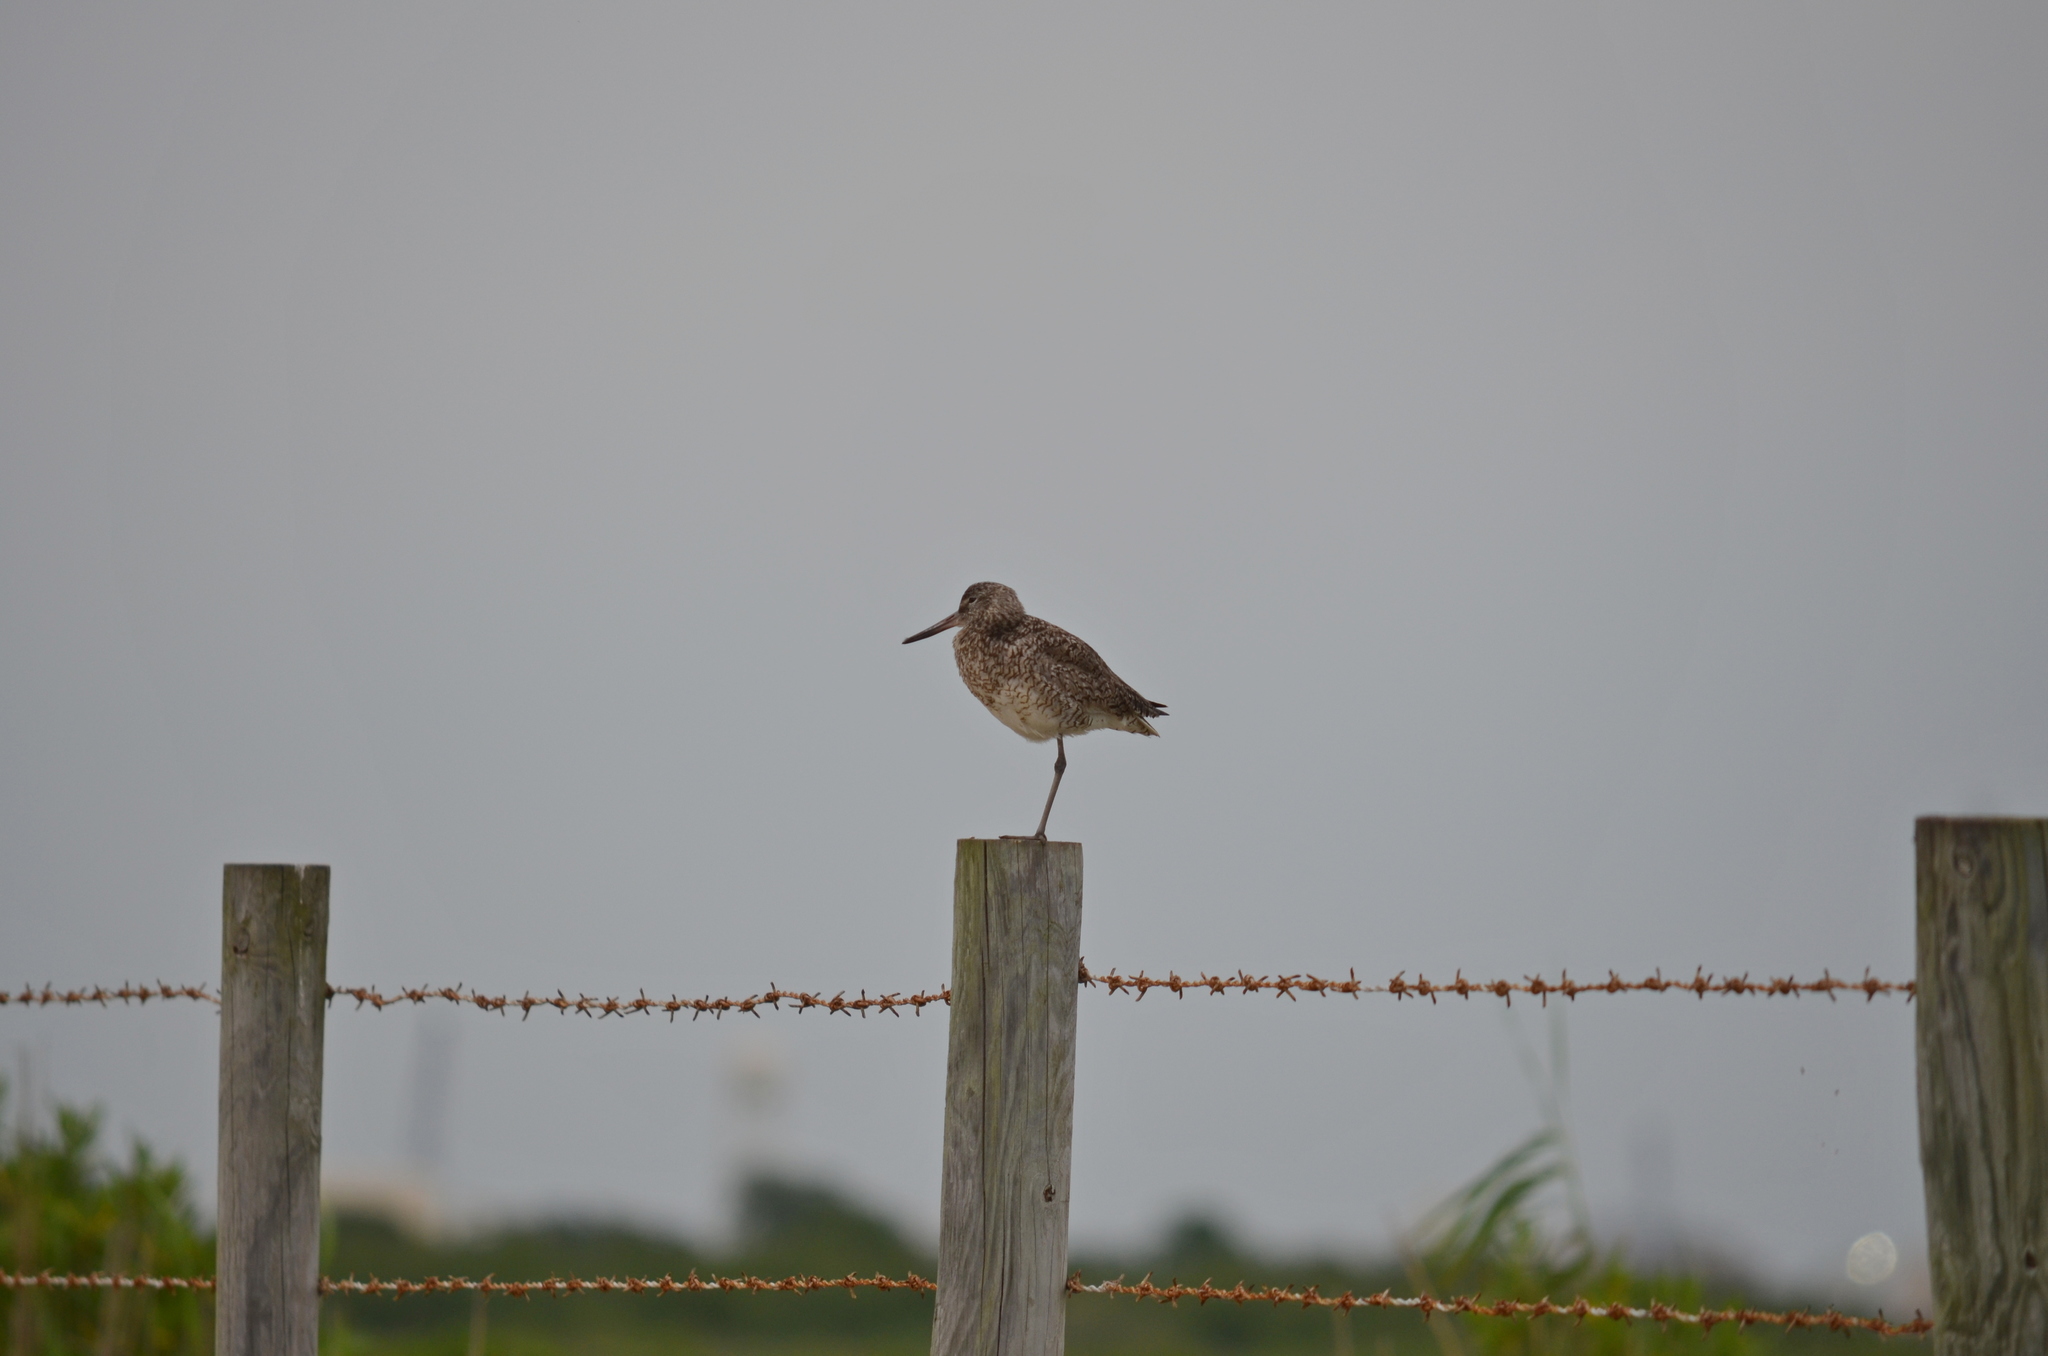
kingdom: Animalia
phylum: Chordata
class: Aves
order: Charadriiformes
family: Scolopacidae
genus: Tringa
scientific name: Tringa semipalmata
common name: Willet
